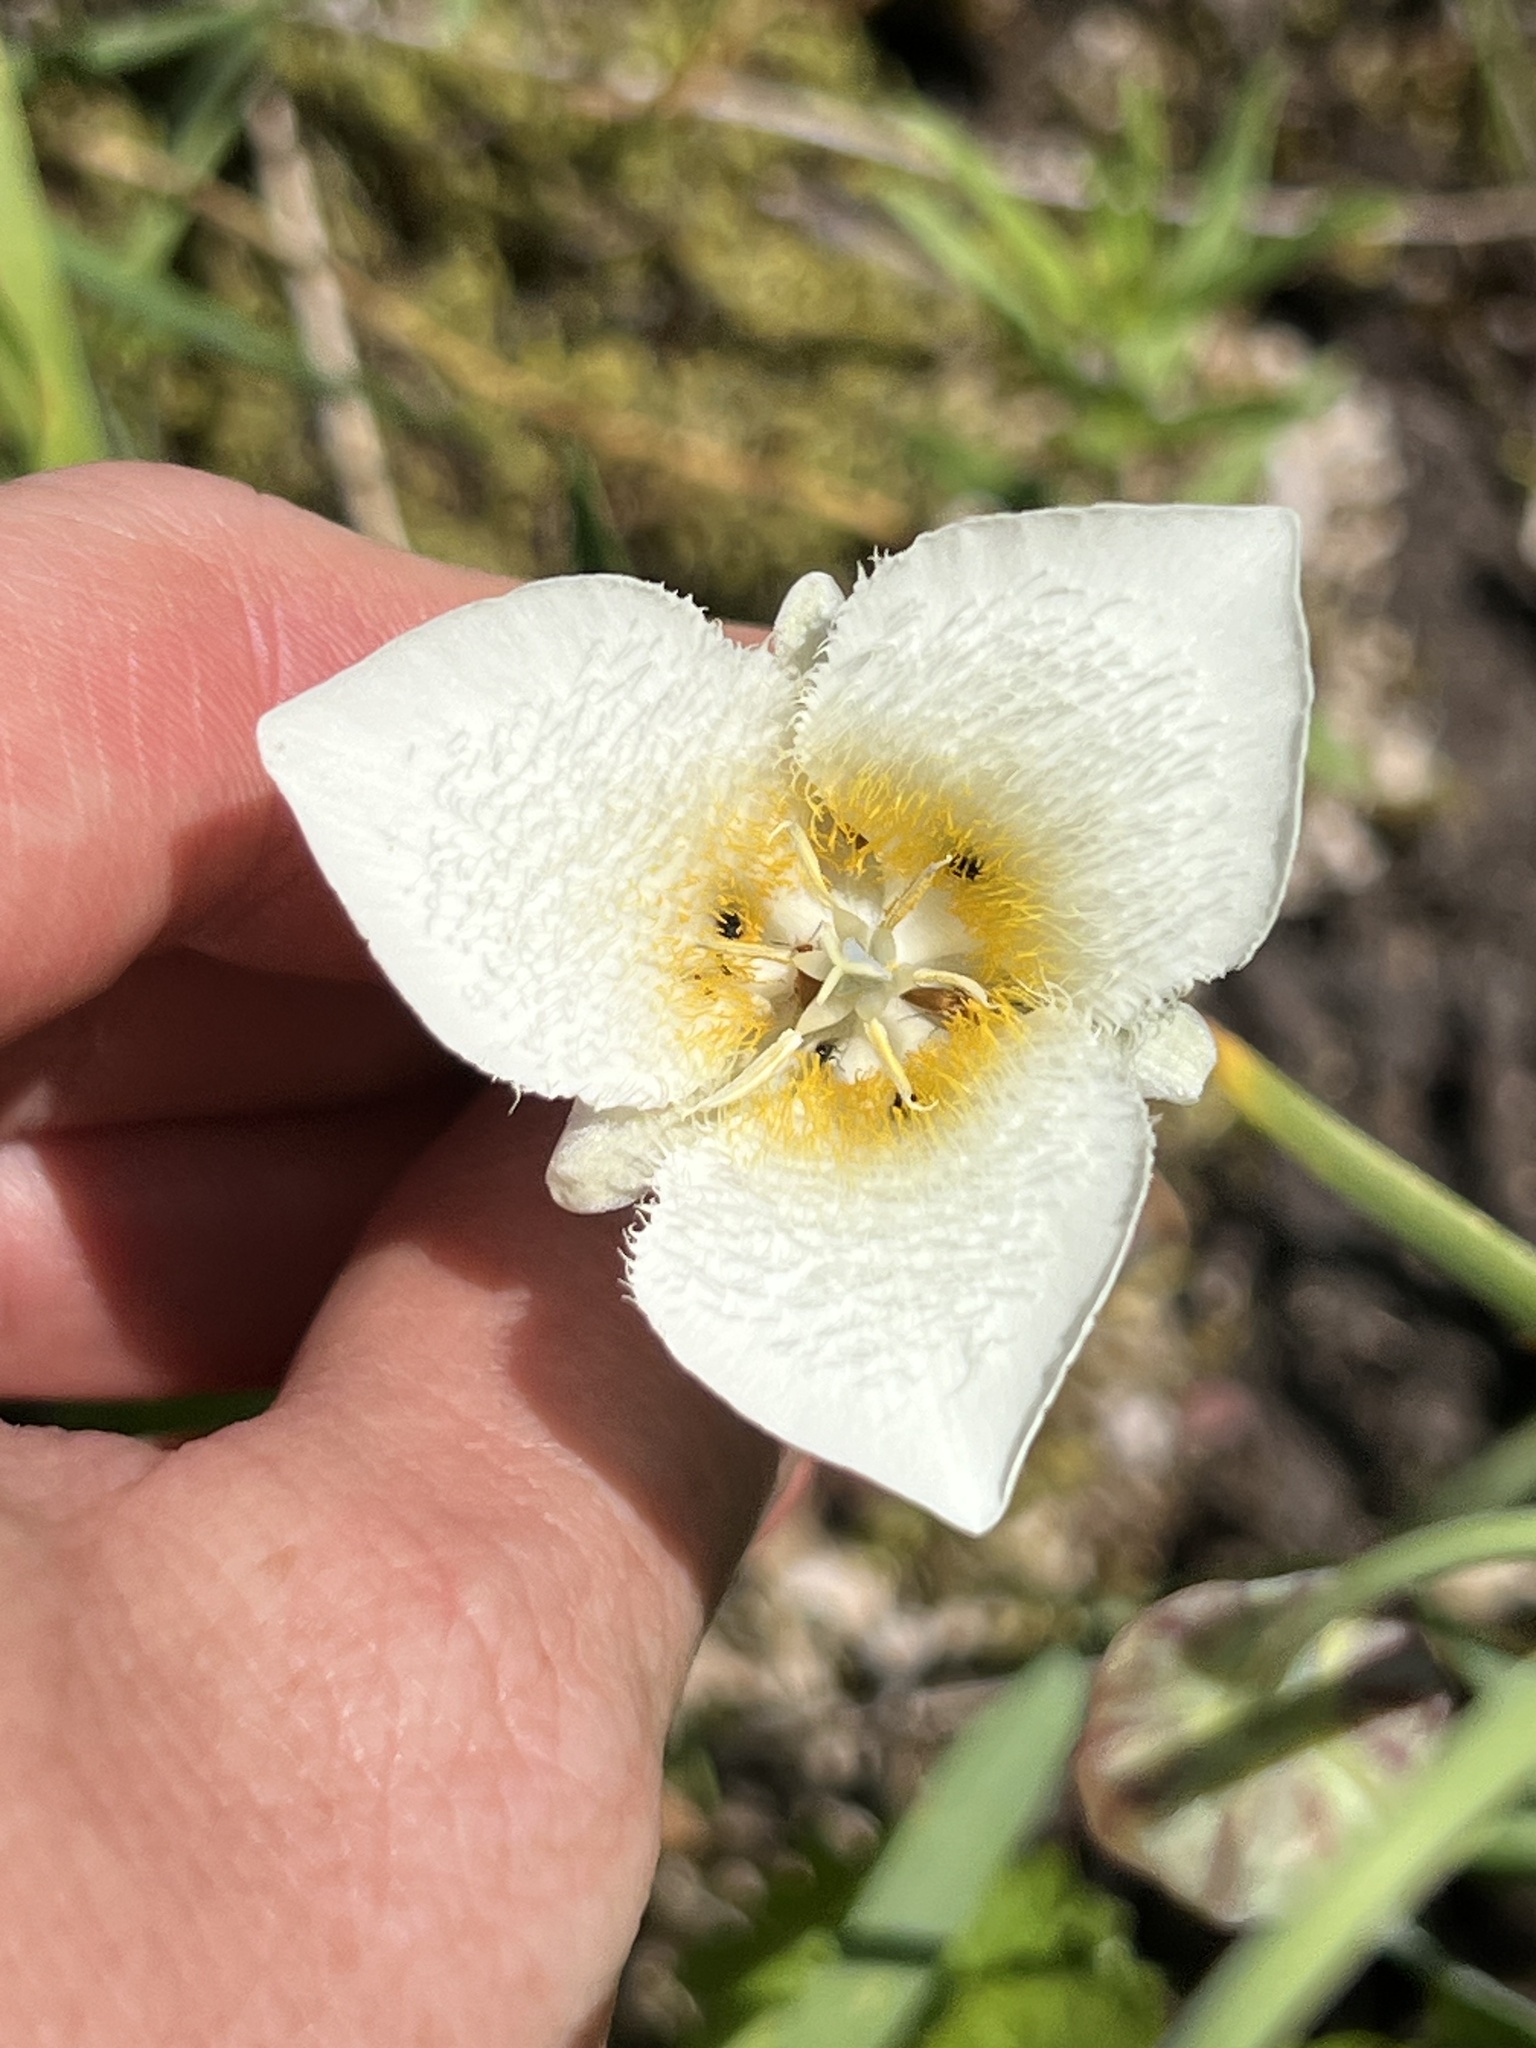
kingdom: Plantae
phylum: Tracheophyta
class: Liliopsida
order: Liliales
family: Liliaceae
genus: Calochortus
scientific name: Calochortus apiculatus
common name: Baker's mariposa lily
